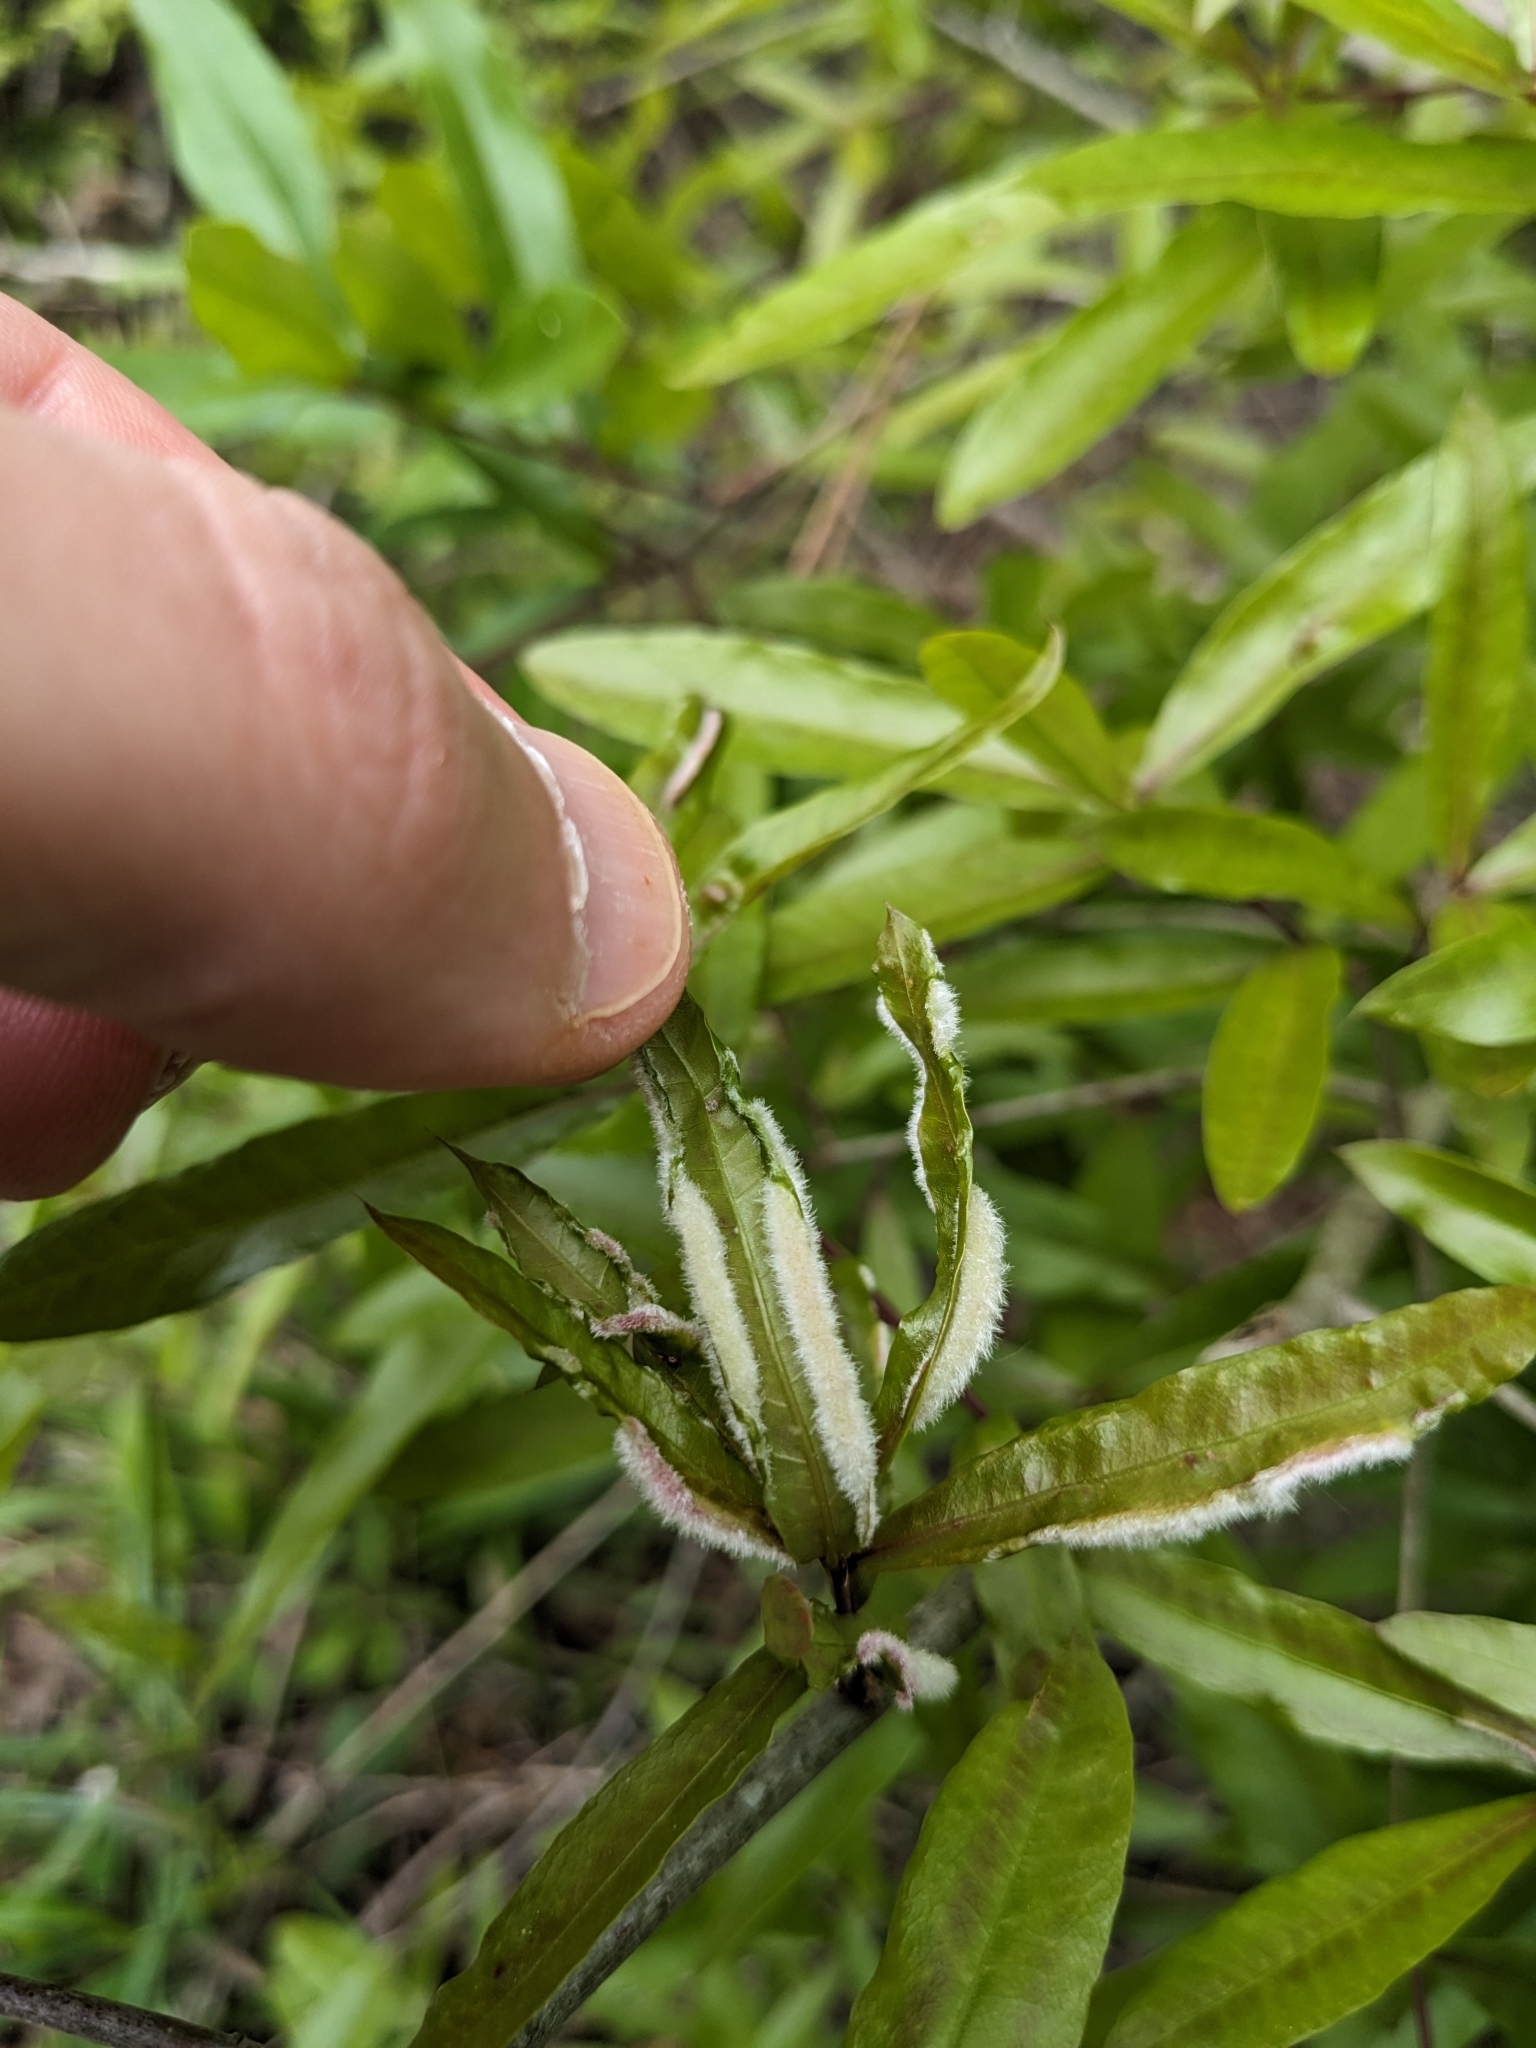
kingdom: Animalia
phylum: Arthropoda
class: Insecta
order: Diptera
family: Cecidomyiidae
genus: Macrodiplosis
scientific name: Macrodiplosis niveipila
